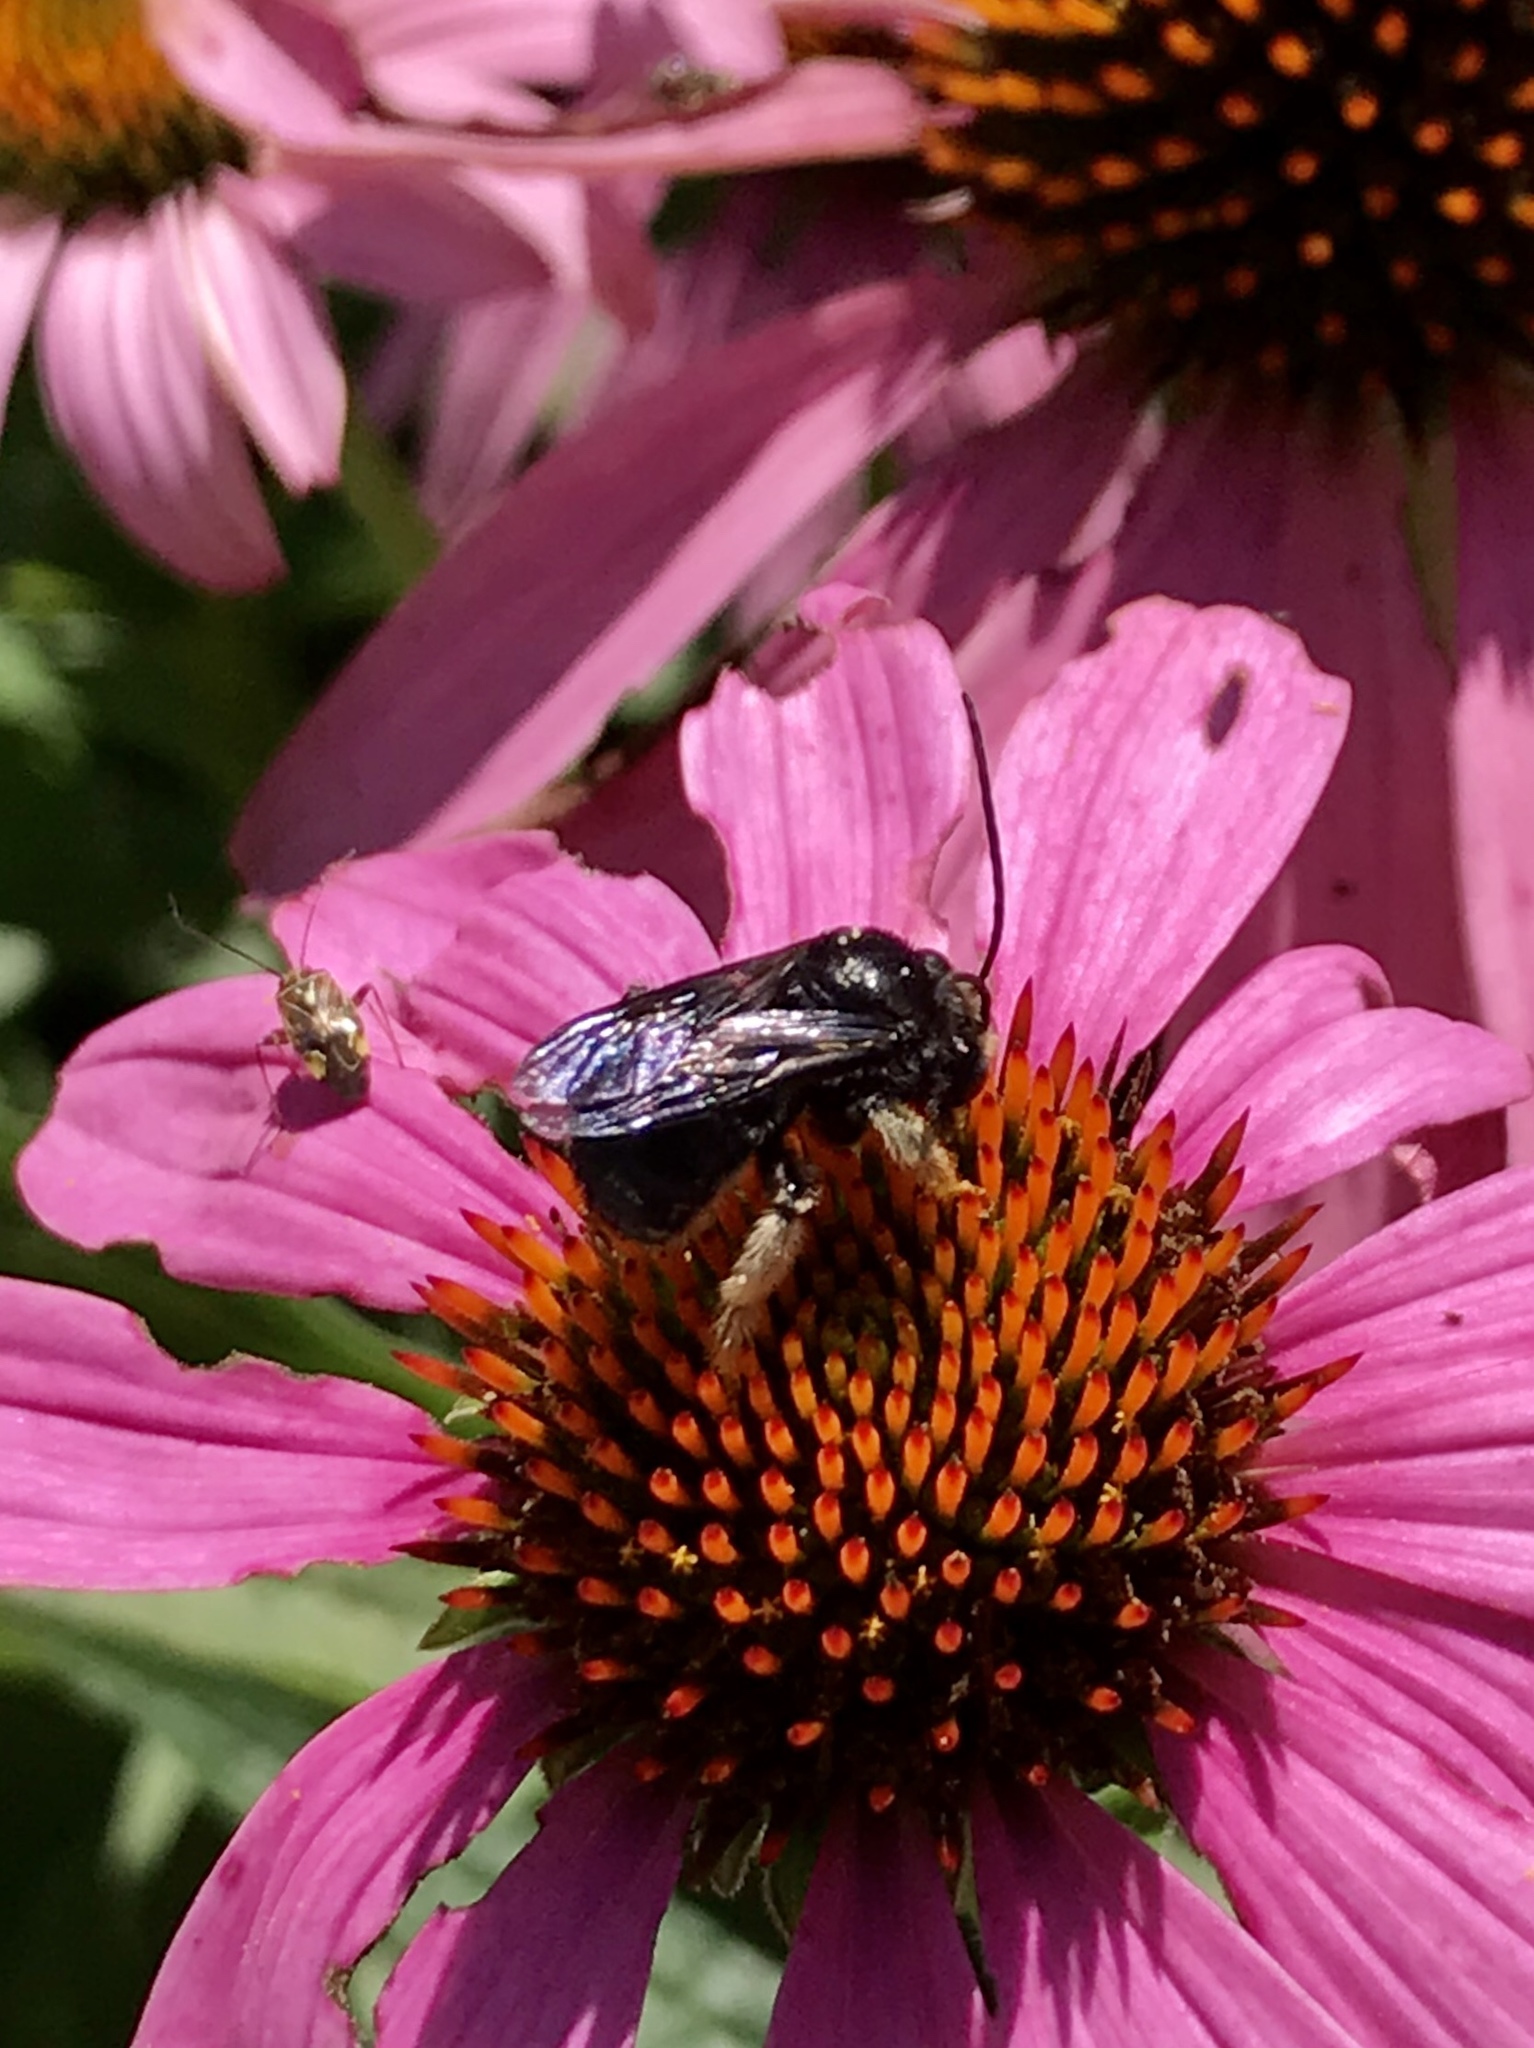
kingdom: Animalia
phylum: Arthropoda
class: Insecta
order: Hymenoptera
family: Apidae
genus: Melissodes
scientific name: Melissodes bimaculatus
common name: Two-spotted long-horned bee
